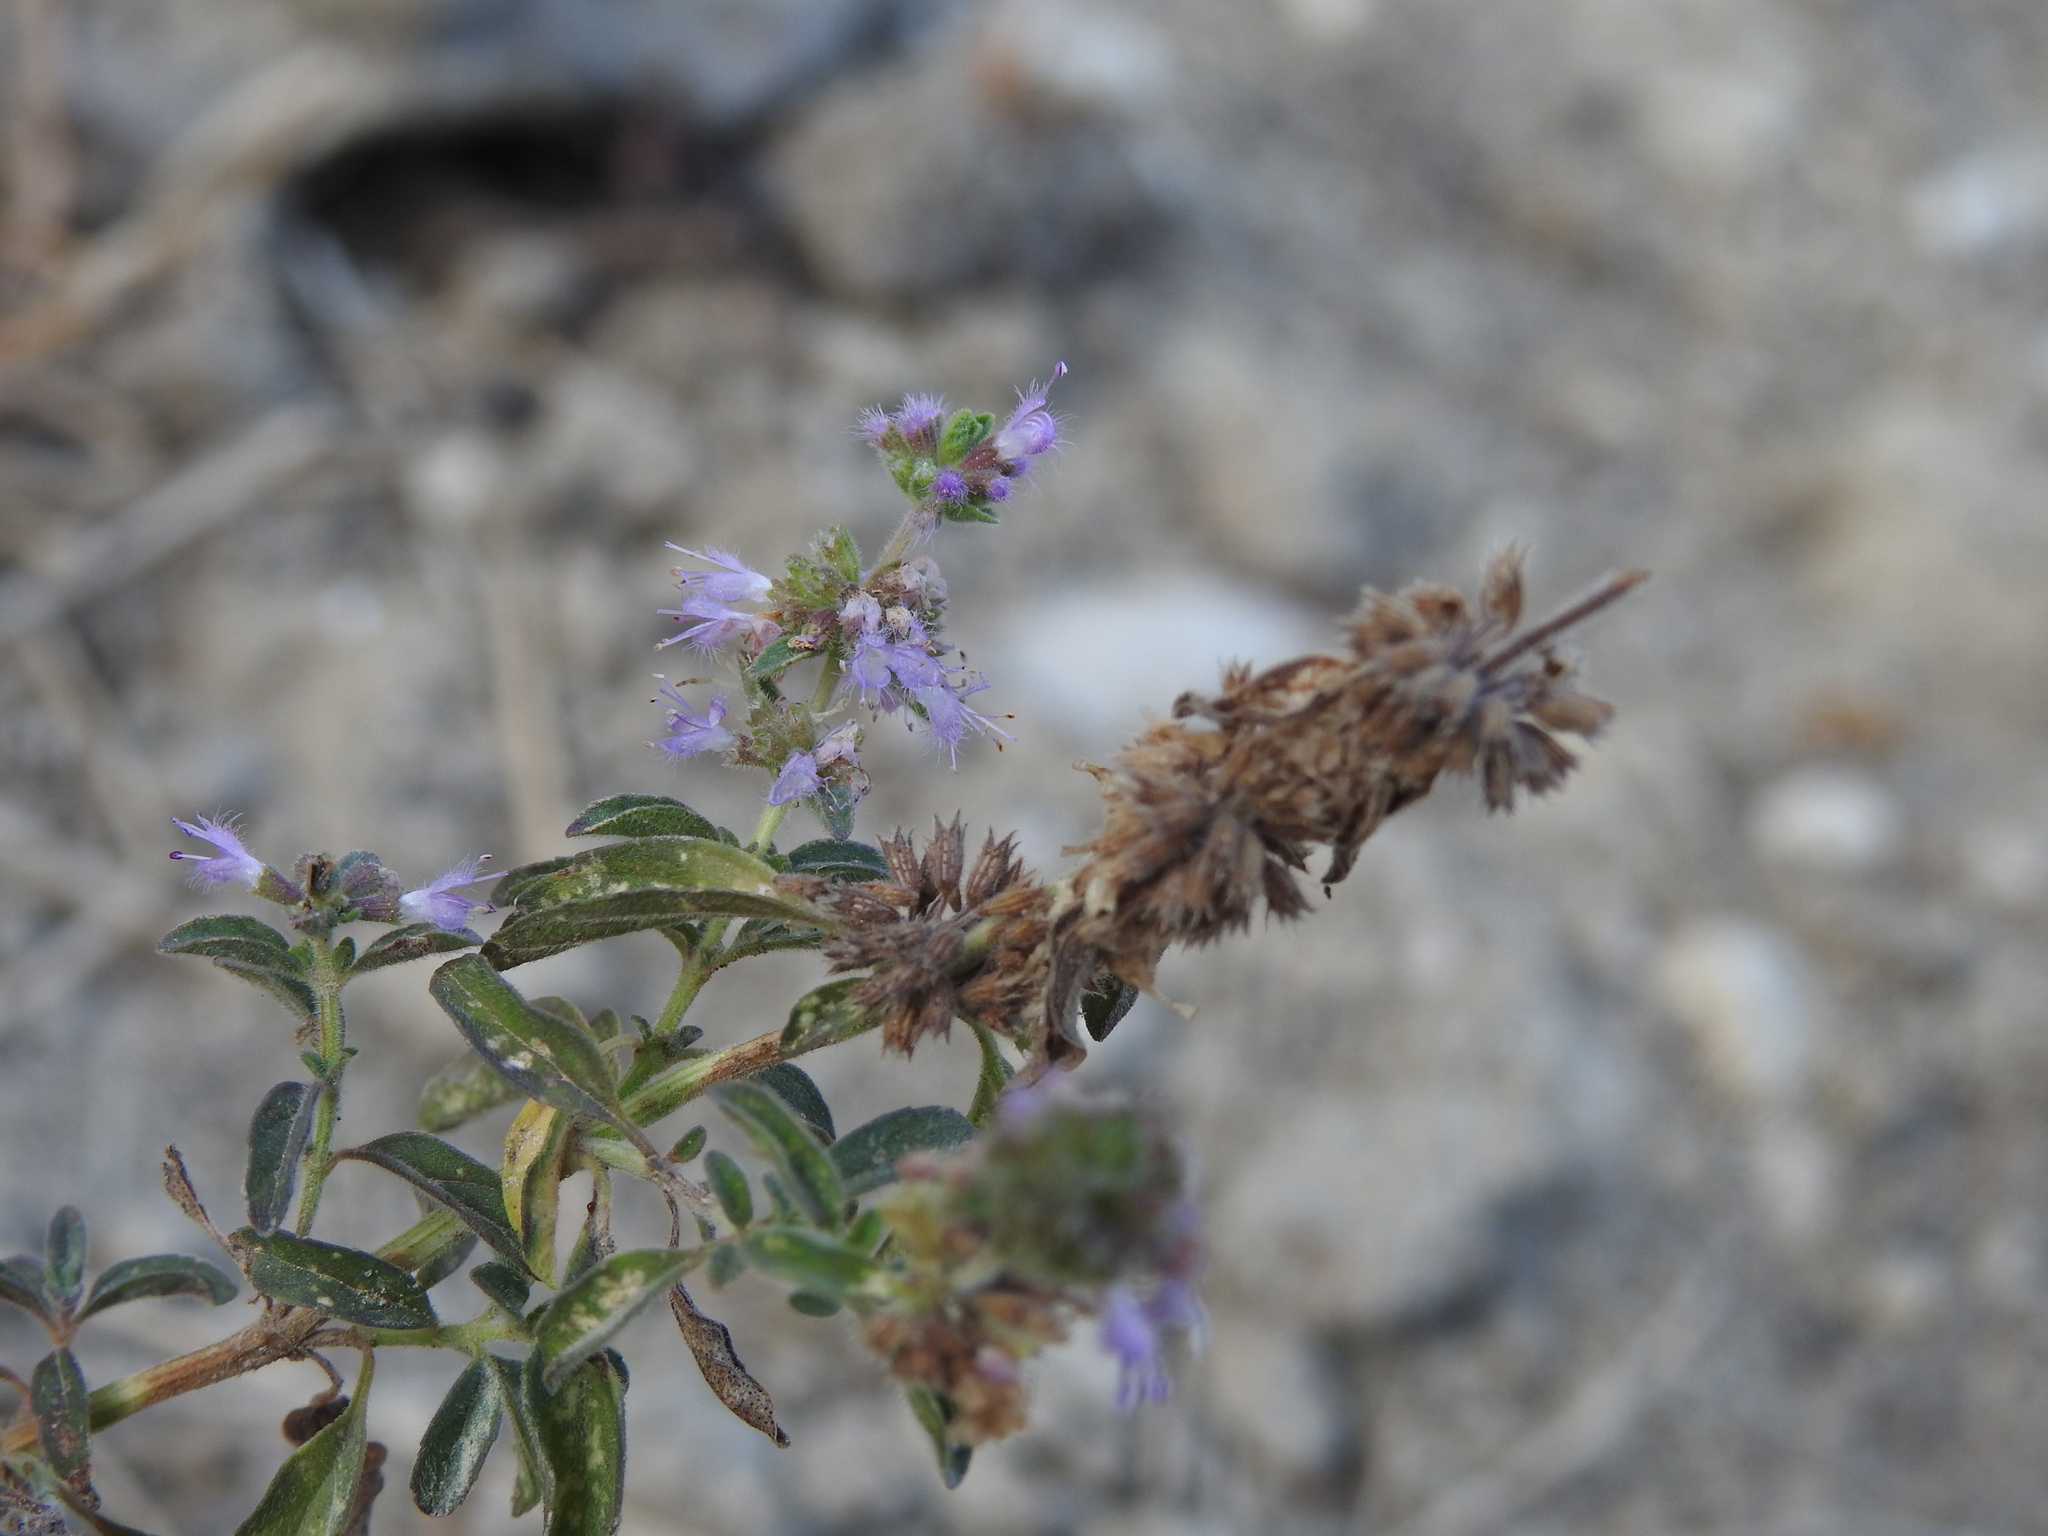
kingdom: Plantae
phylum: Tracheophyta
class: Magnoliopsida
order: Lamiales
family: Lamiaceae
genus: Mentha
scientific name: Mentha pulegium
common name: Pennyroyal
